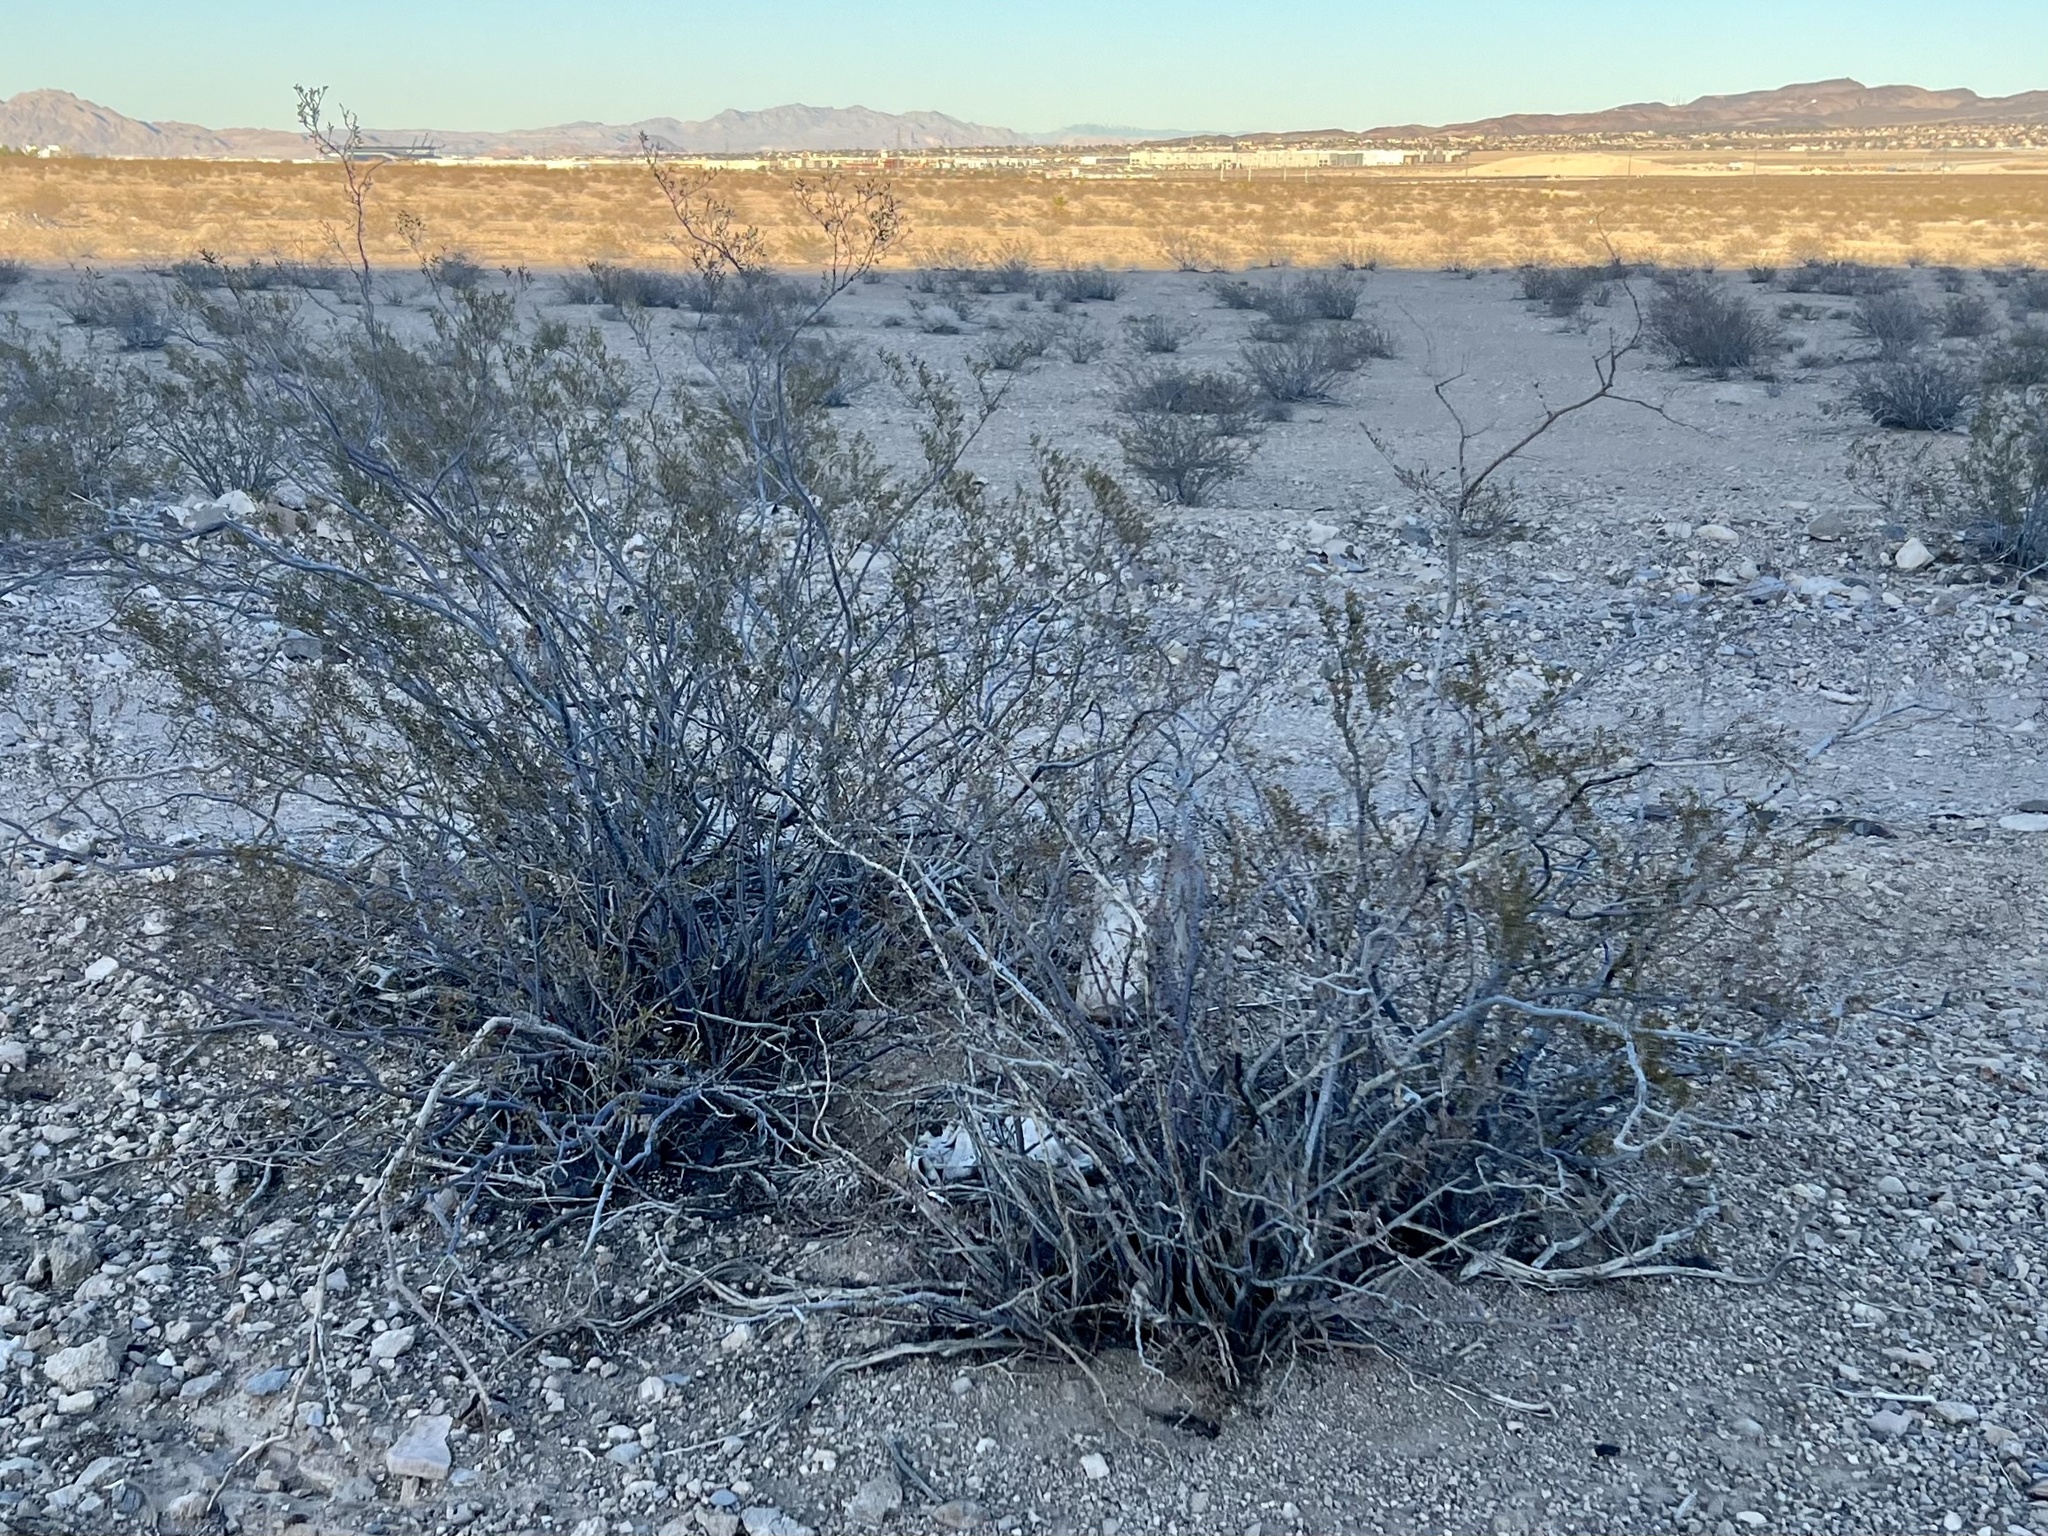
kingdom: Plantae
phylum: Tracheophyta
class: Magnoliopsida
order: Zygophyllales
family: Zygophyllaceae
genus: Larrea
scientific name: Larrea tridentata
